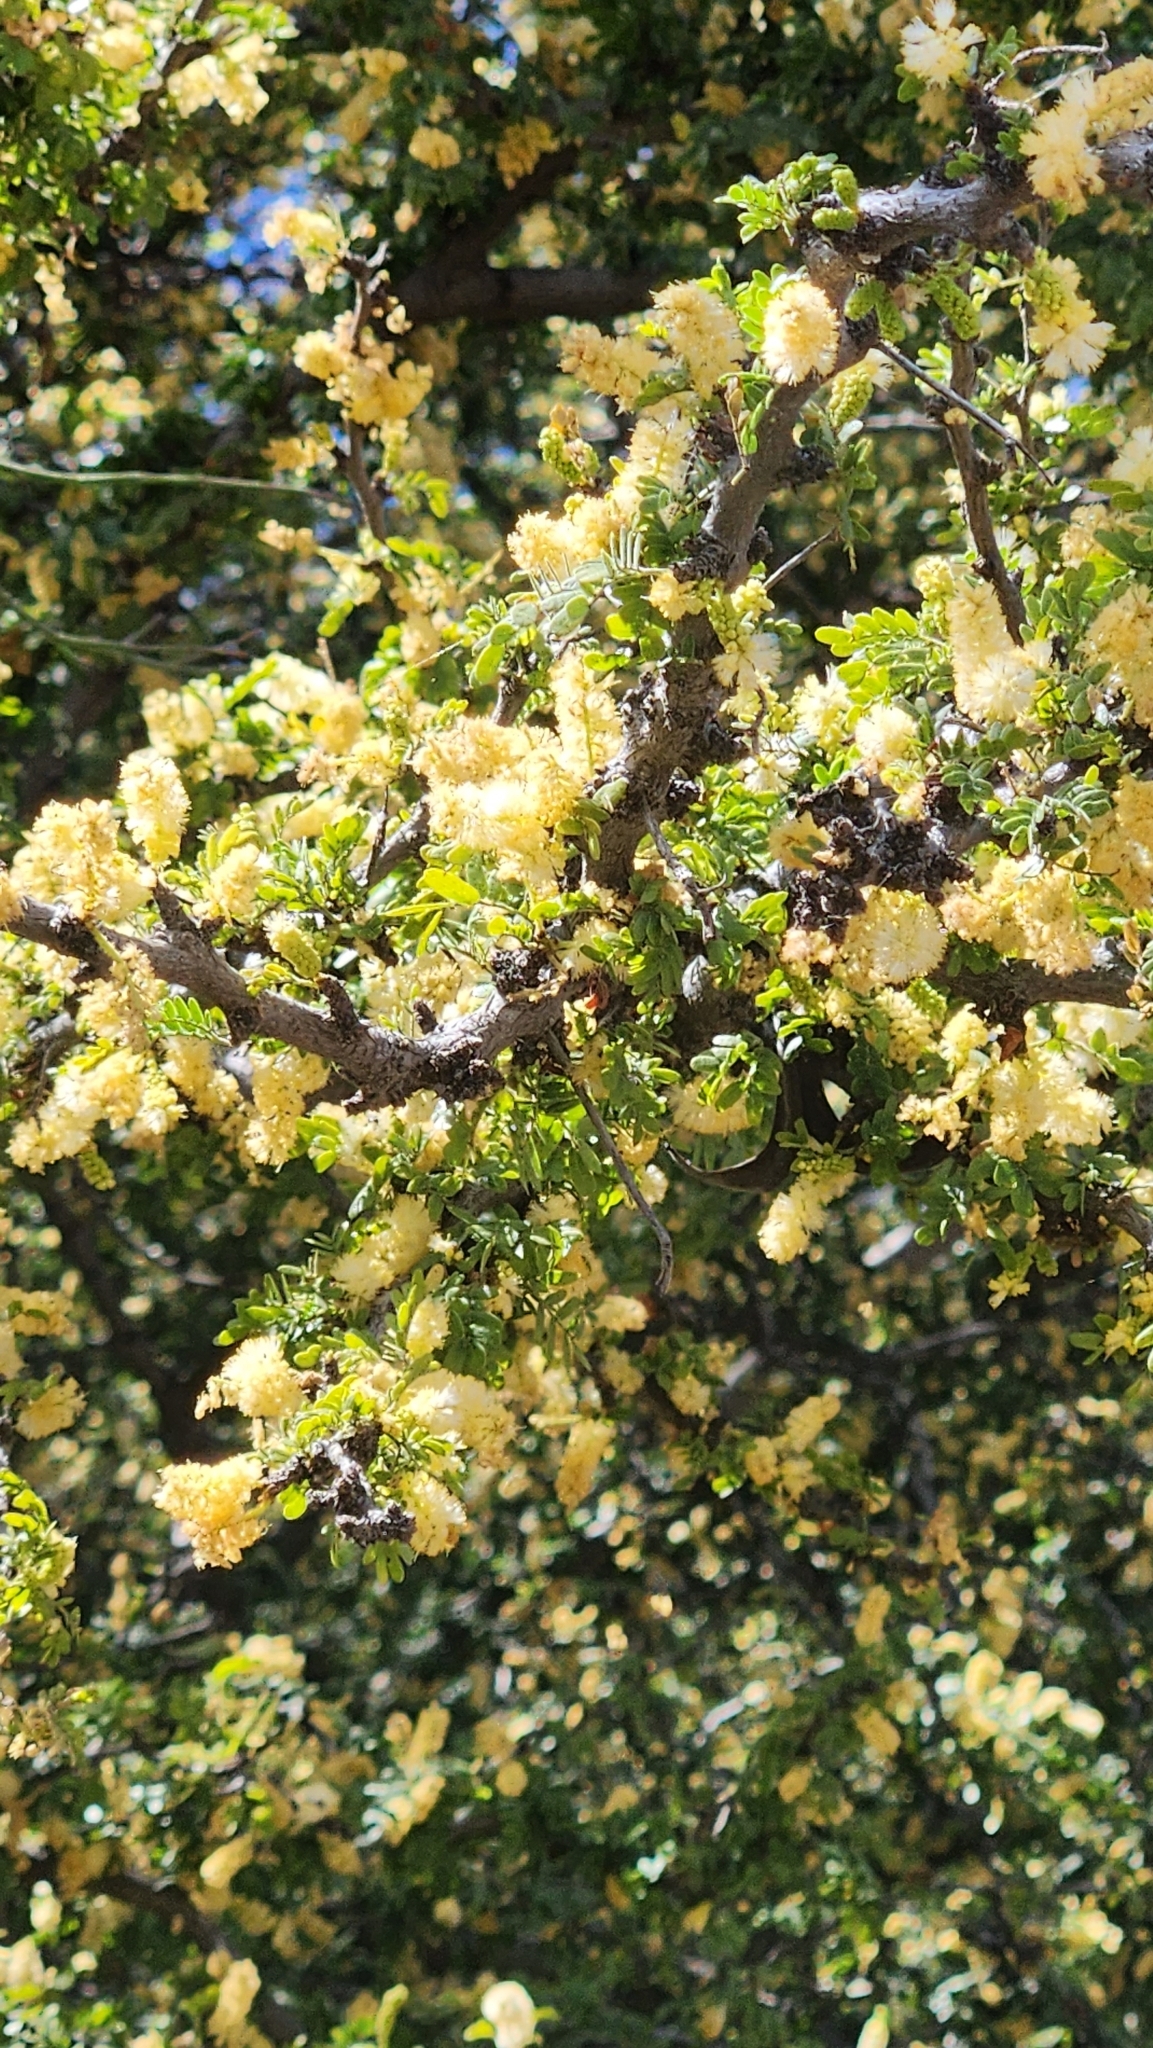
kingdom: Plantae
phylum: Tracheophyta
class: Magnoliopsida
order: Fabales
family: Fabaceae
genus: Vachellia
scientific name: Vachellia brandegeana
